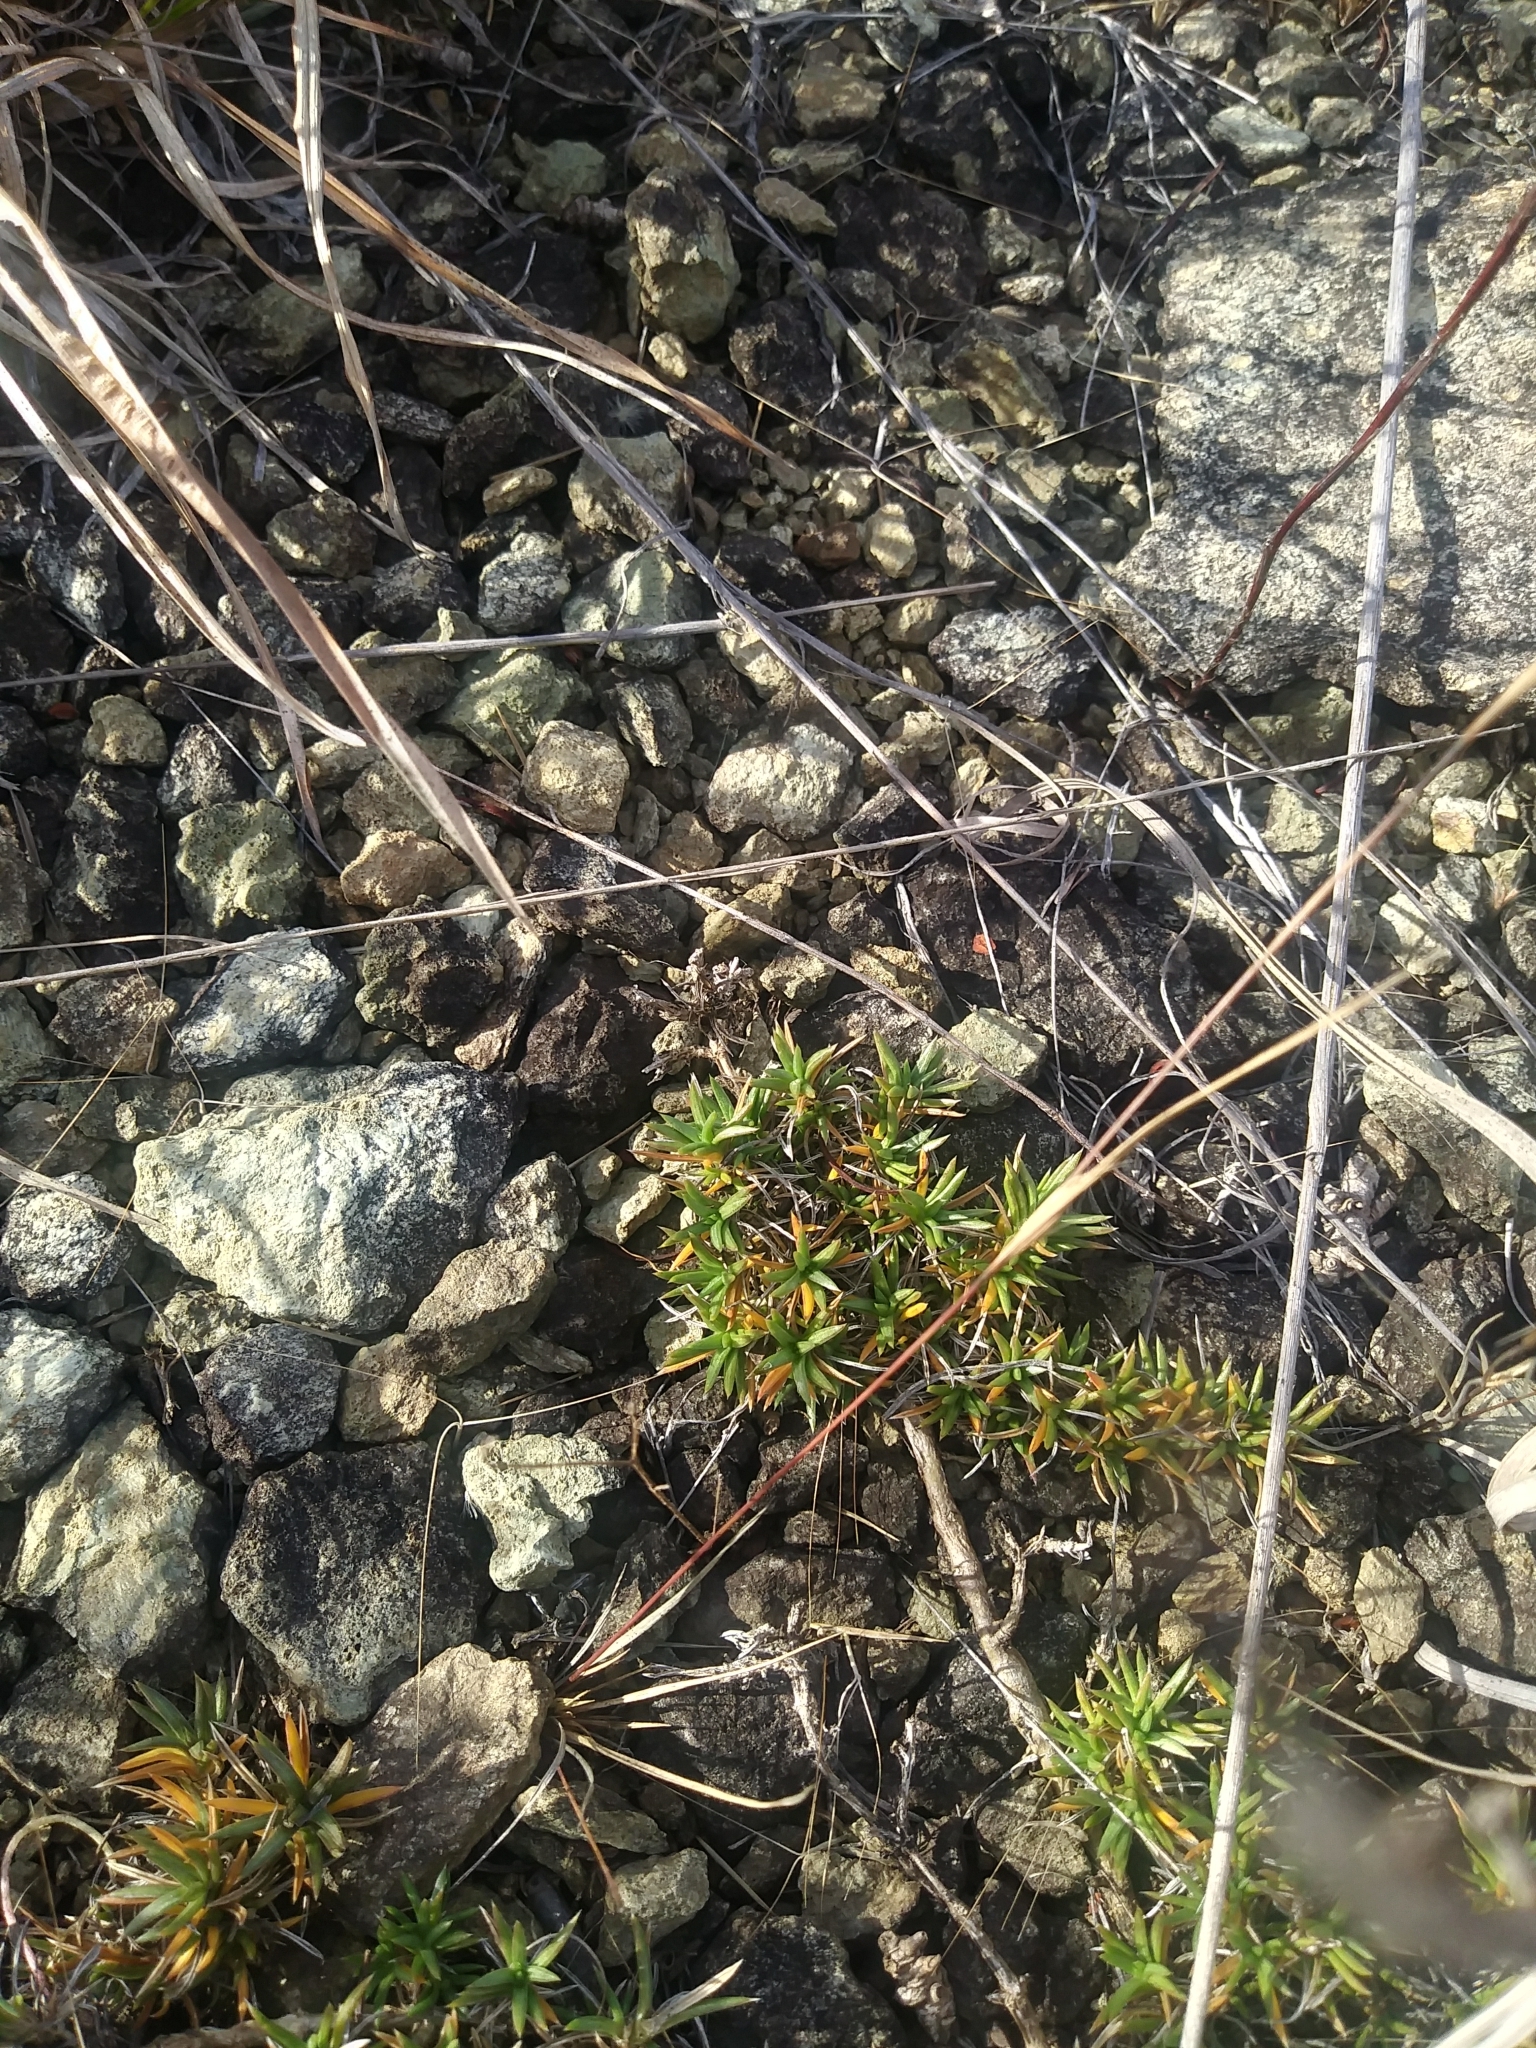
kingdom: Plantae
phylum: Tracheophyta
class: Magnoliopsida
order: Caryophyllales
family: Caryophyllaceae
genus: Sabulina
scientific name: Sabulina michauxii
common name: Michaux's stitchwort
